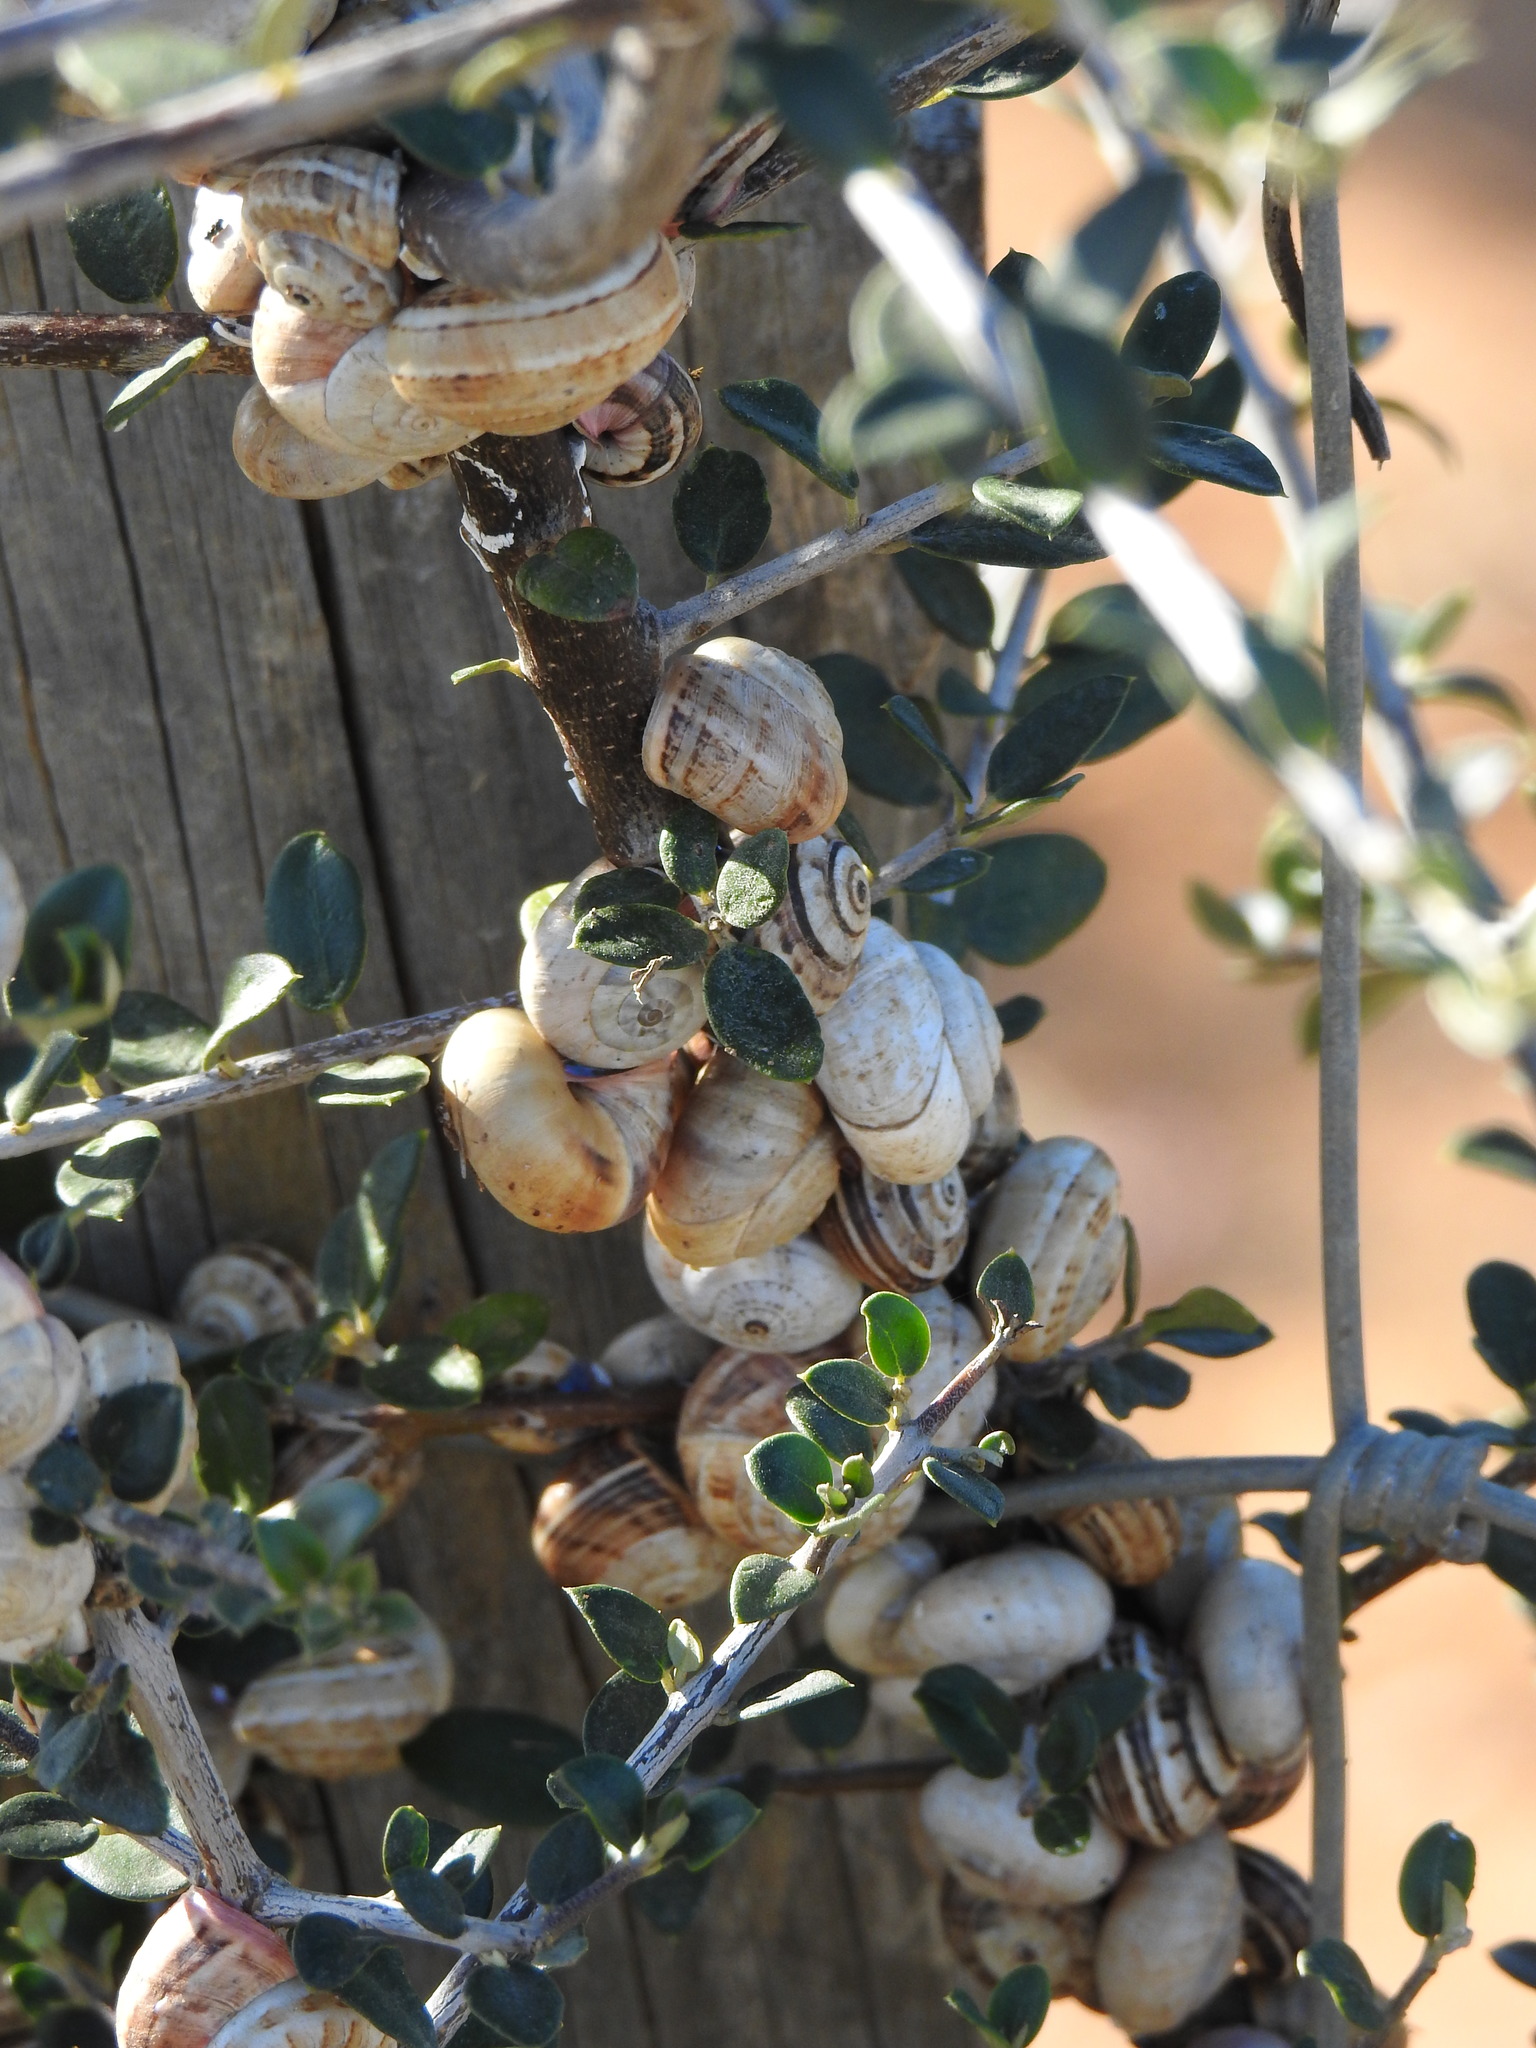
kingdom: Animalia
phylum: Mollusca
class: Gastropoda
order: Stylommatophora
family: Helicidae
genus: Theba
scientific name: Theba pisana
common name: White snail
